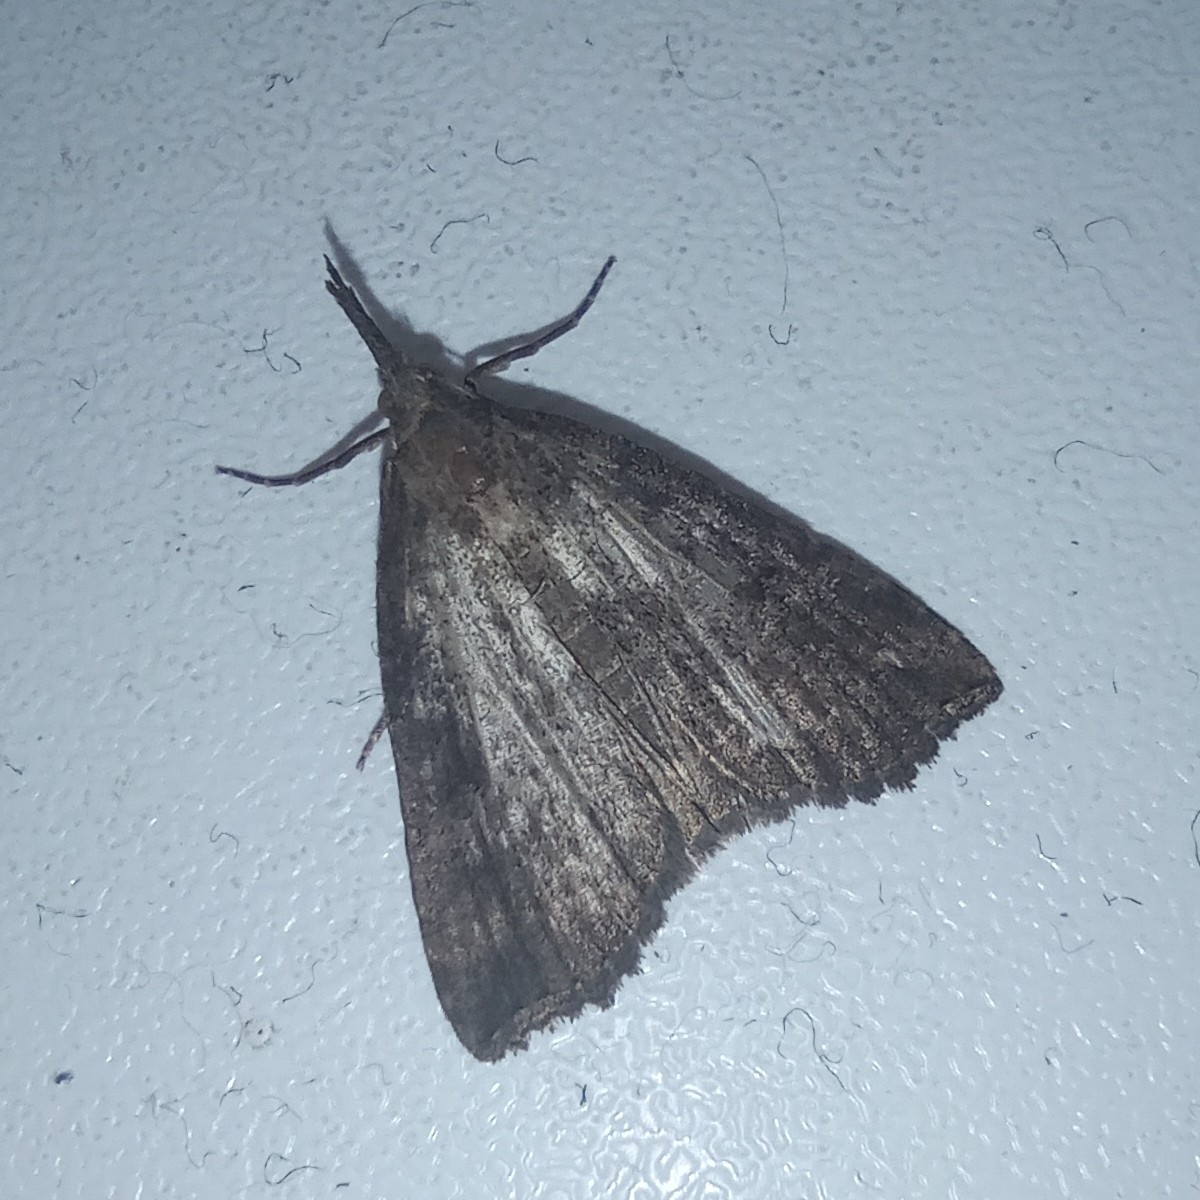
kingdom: Animalia
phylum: Arthropoda
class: Insecta
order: Lepidoptera
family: Erebidae
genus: Hypena
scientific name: Hypena rostralis
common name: Buttoned snout
